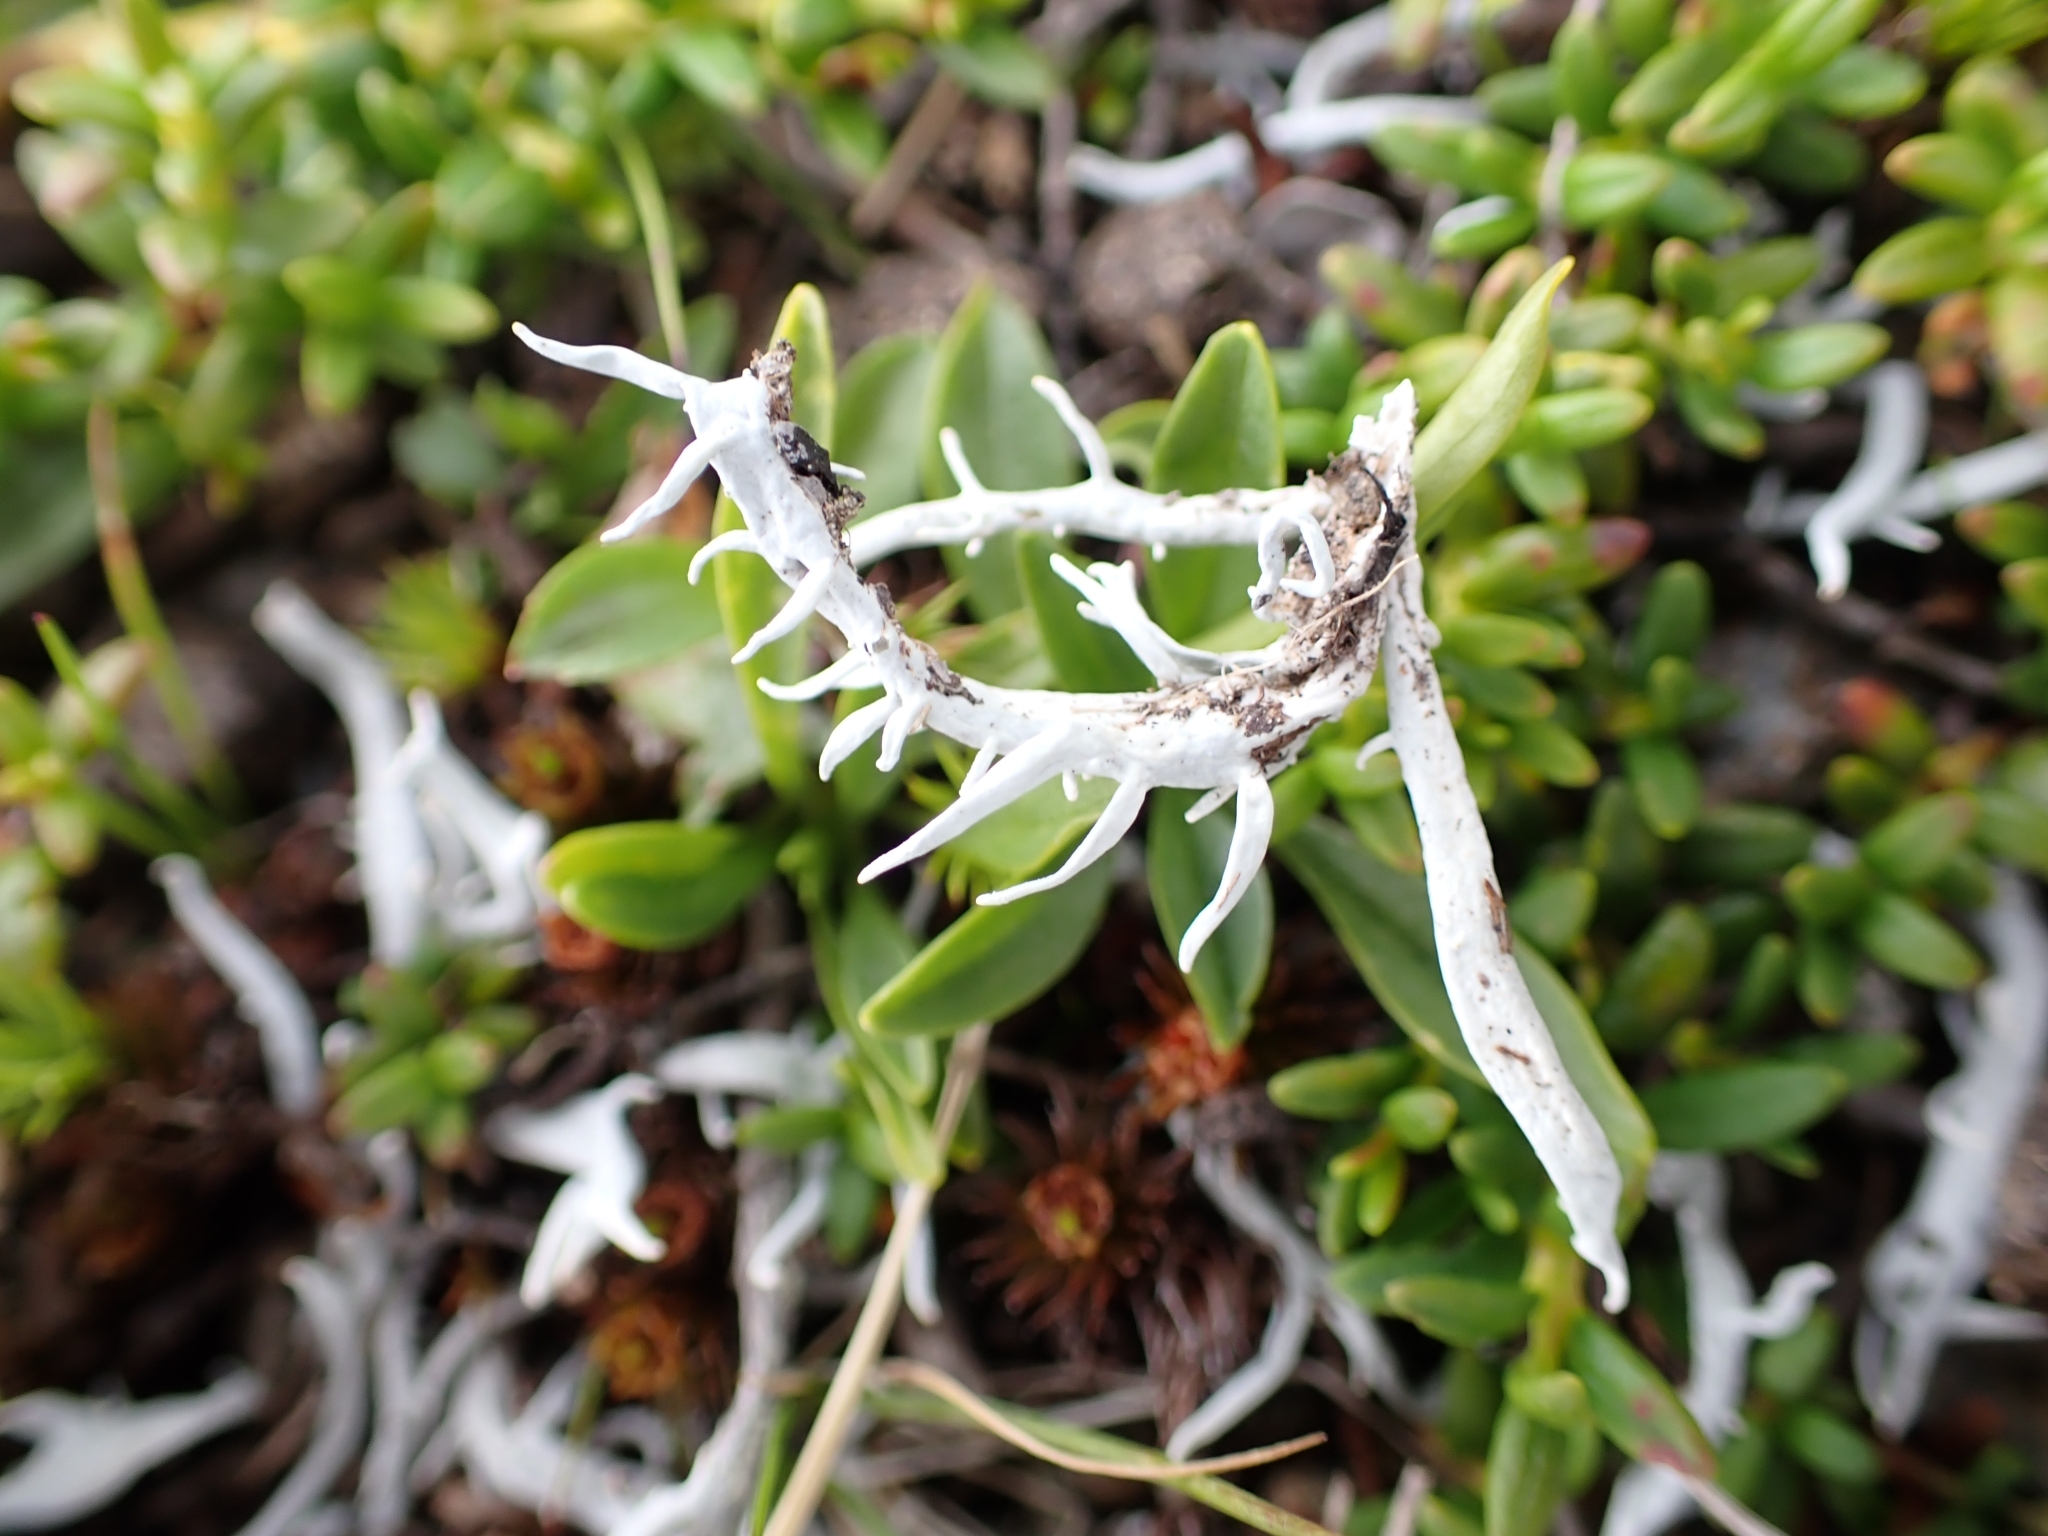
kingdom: Fungi
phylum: Ascomycota
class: Lecanoromycetes
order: Pertusariales
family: Icmadophilaceae
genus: Thamnolia
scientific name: Thamnolia vermicularis
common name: Whiteworm lichen
